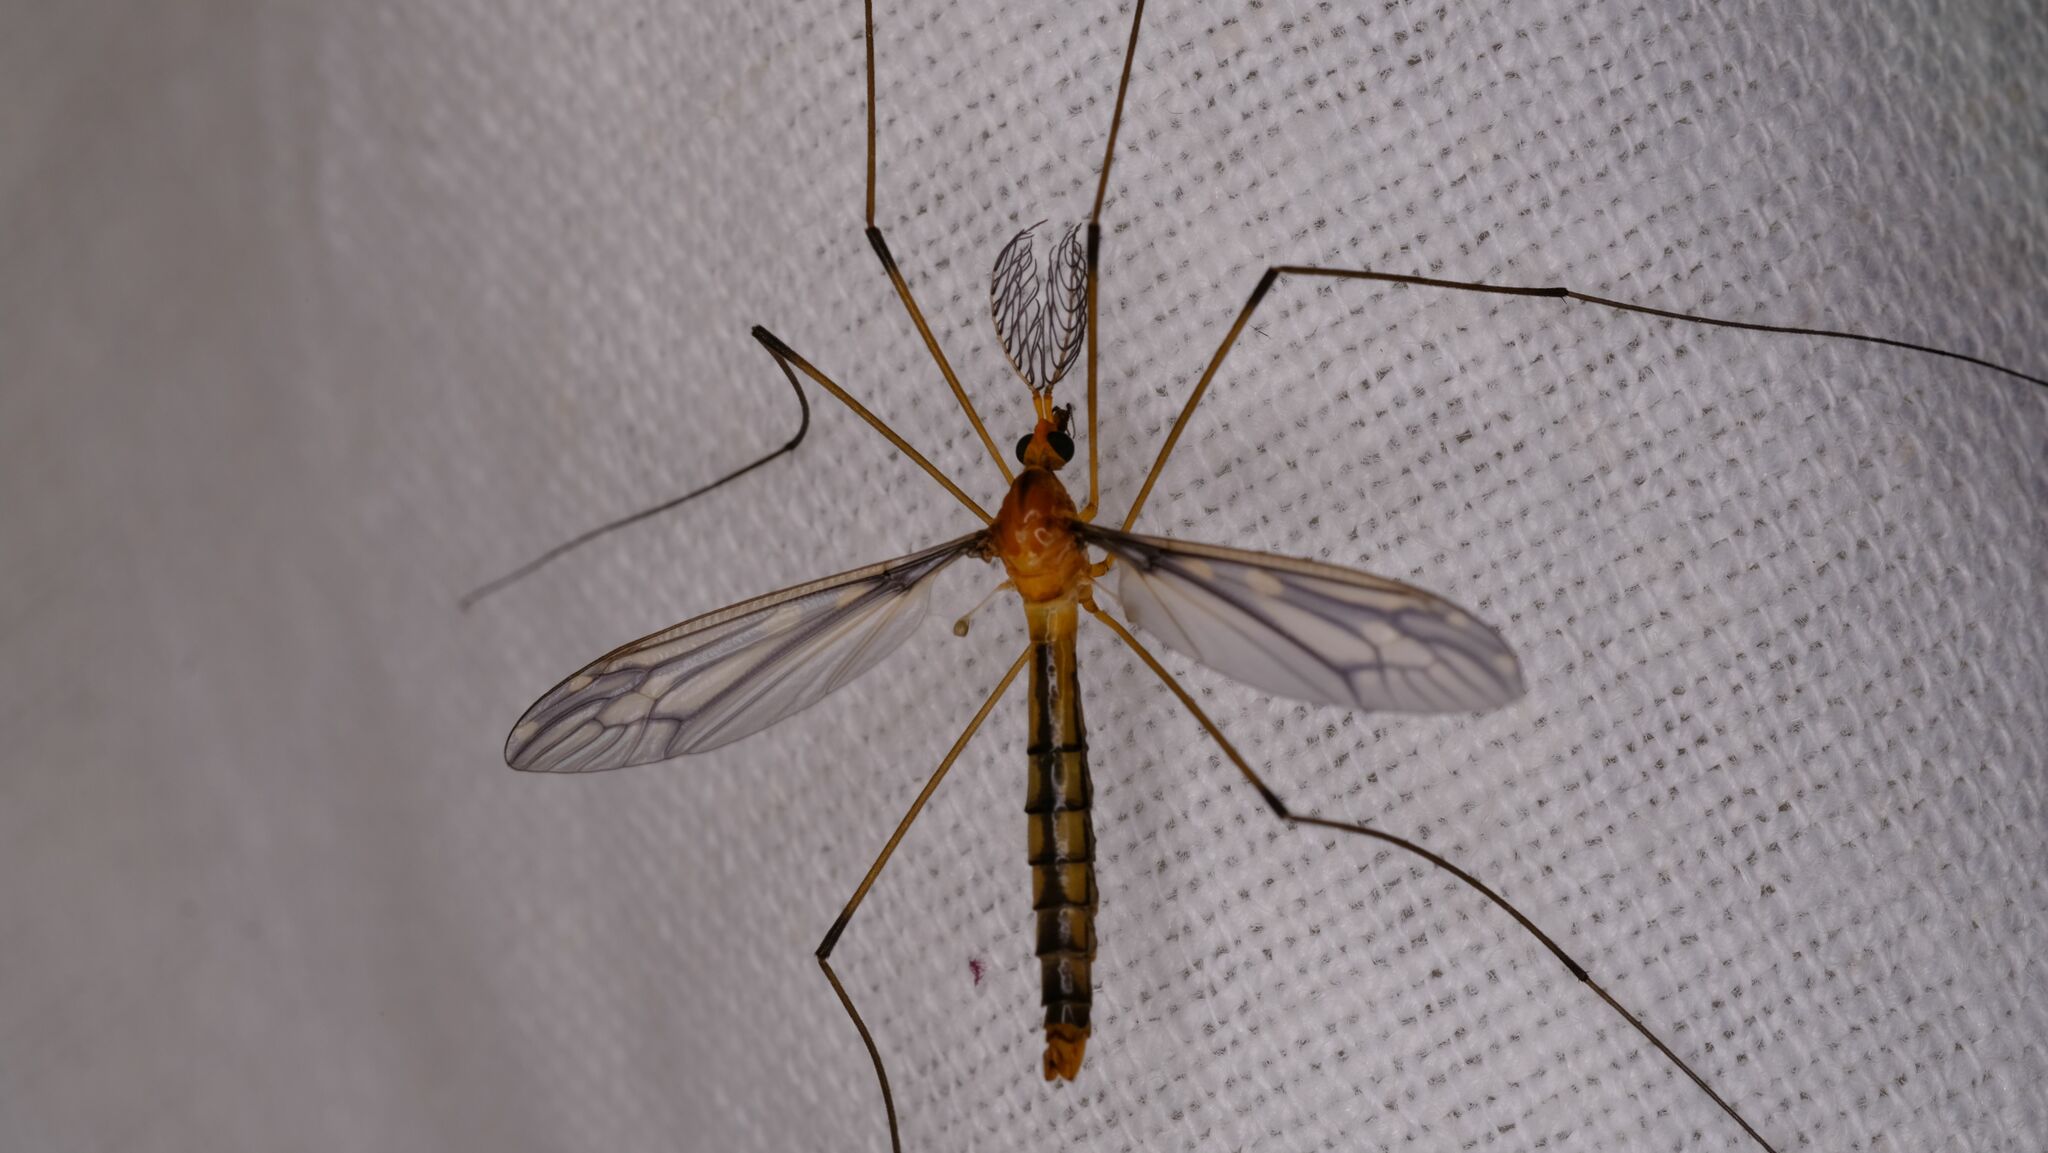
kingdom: Animalia
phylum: Arthropoda
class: Insecta
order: Diptera
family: Tipulidae
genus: Ptilogyna
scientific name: Ptilogyna ramicornis
